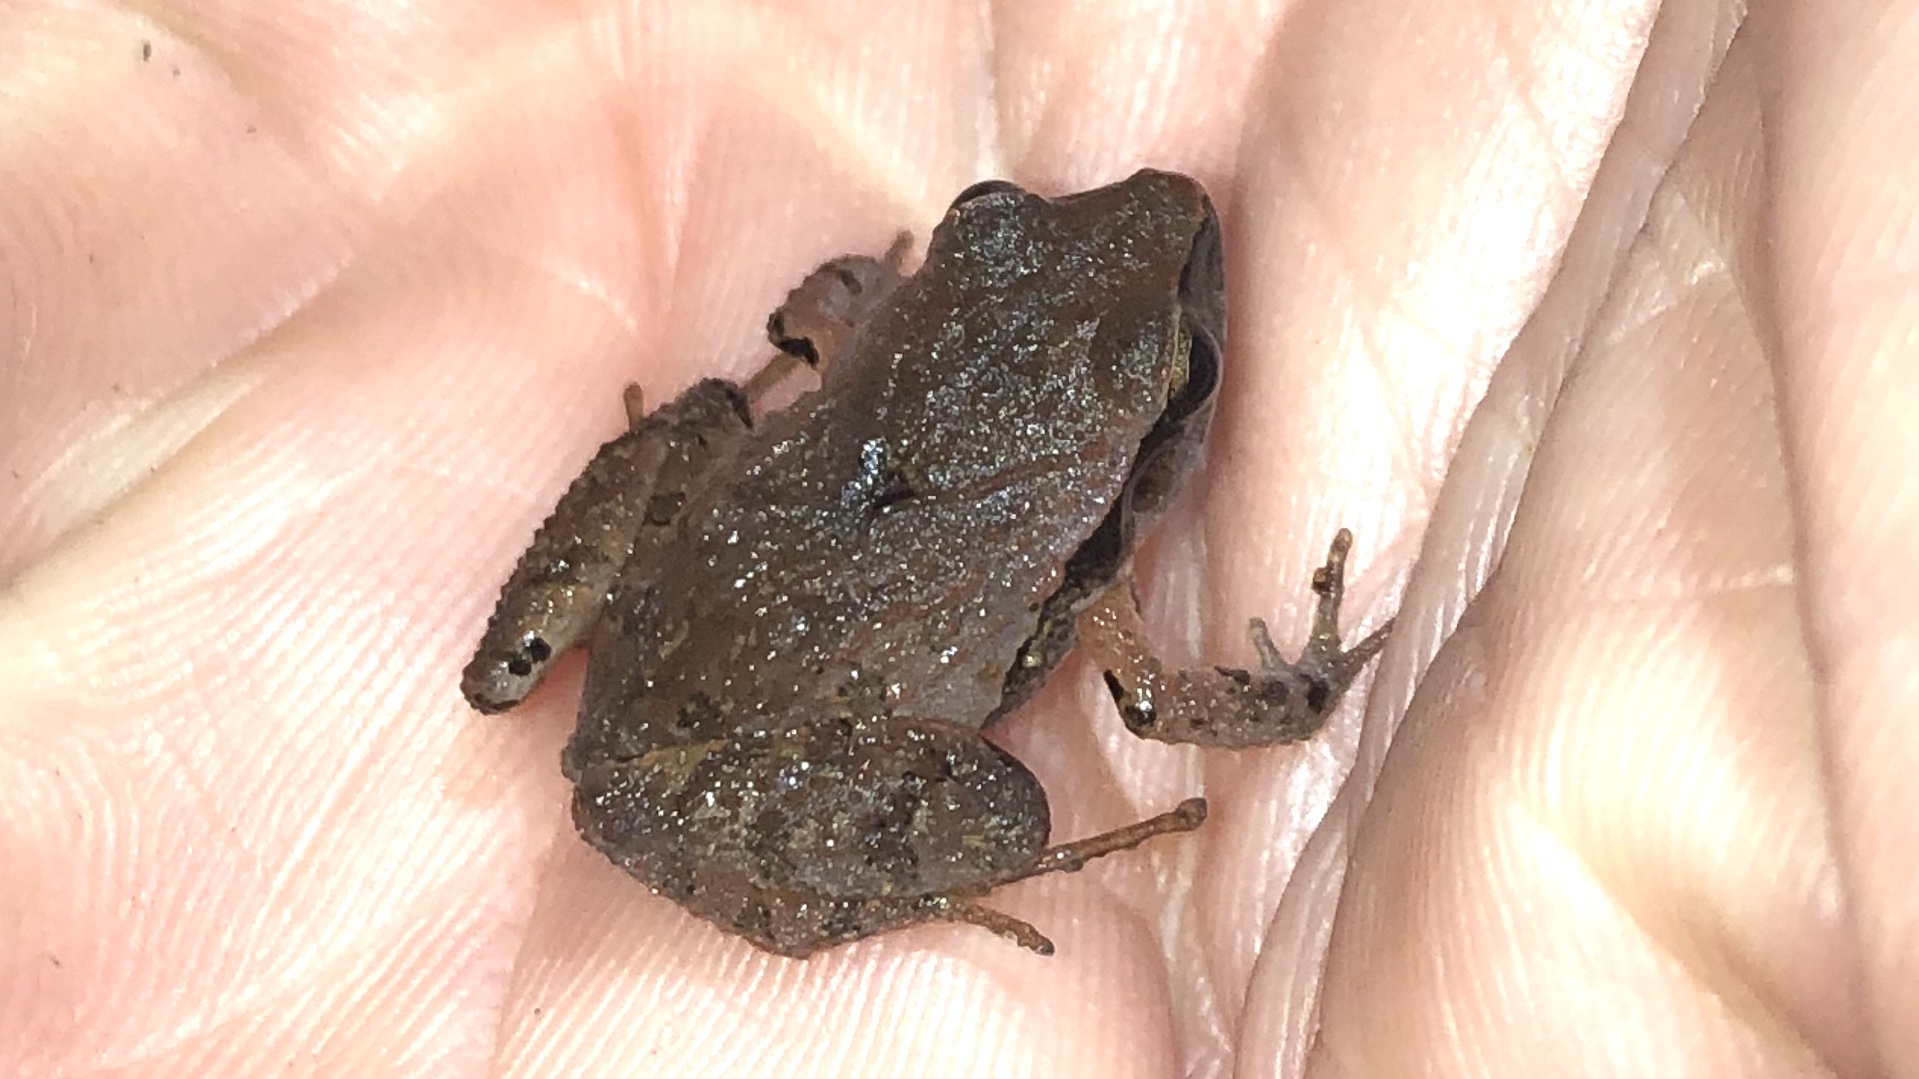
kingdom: Animalia
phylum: Chordata
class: Amphibia
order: Anura
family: Craugastoridae
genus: Craugastor
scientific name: Craugastor stejnegerianus
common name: Stejneger's robber frog
